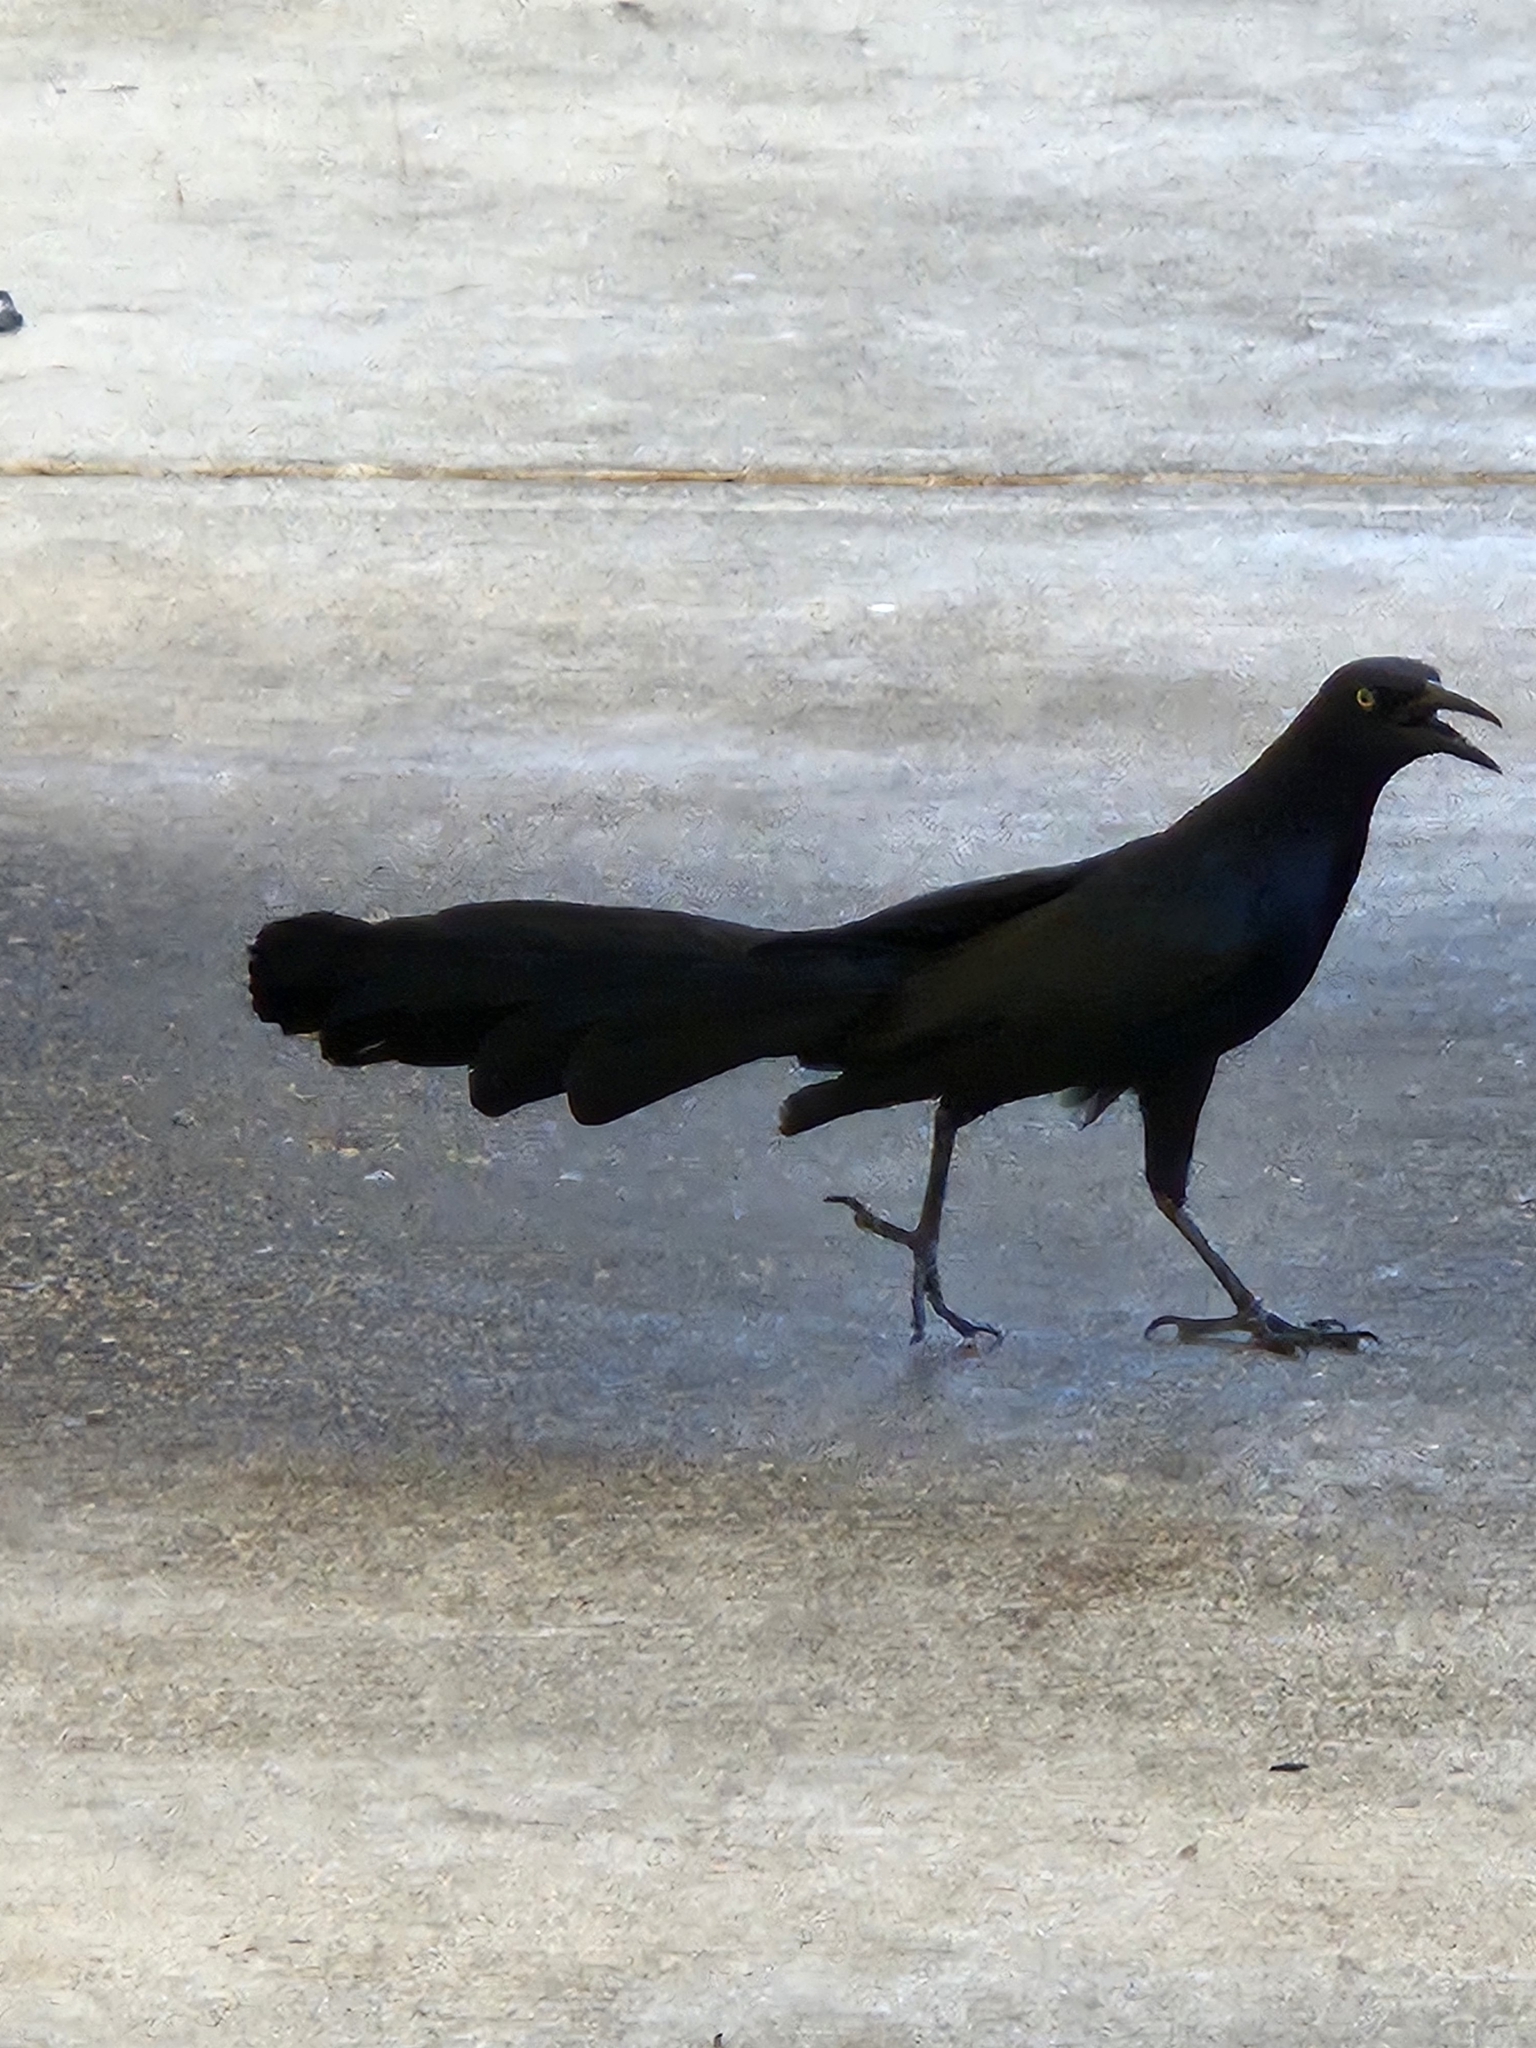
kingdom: Animalia
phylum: Chordata
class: Aves
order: Passeriformes
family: Icteridae
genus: Quiscalus
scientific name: Quiscalus mexicanus
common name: Great-tailed grackle
